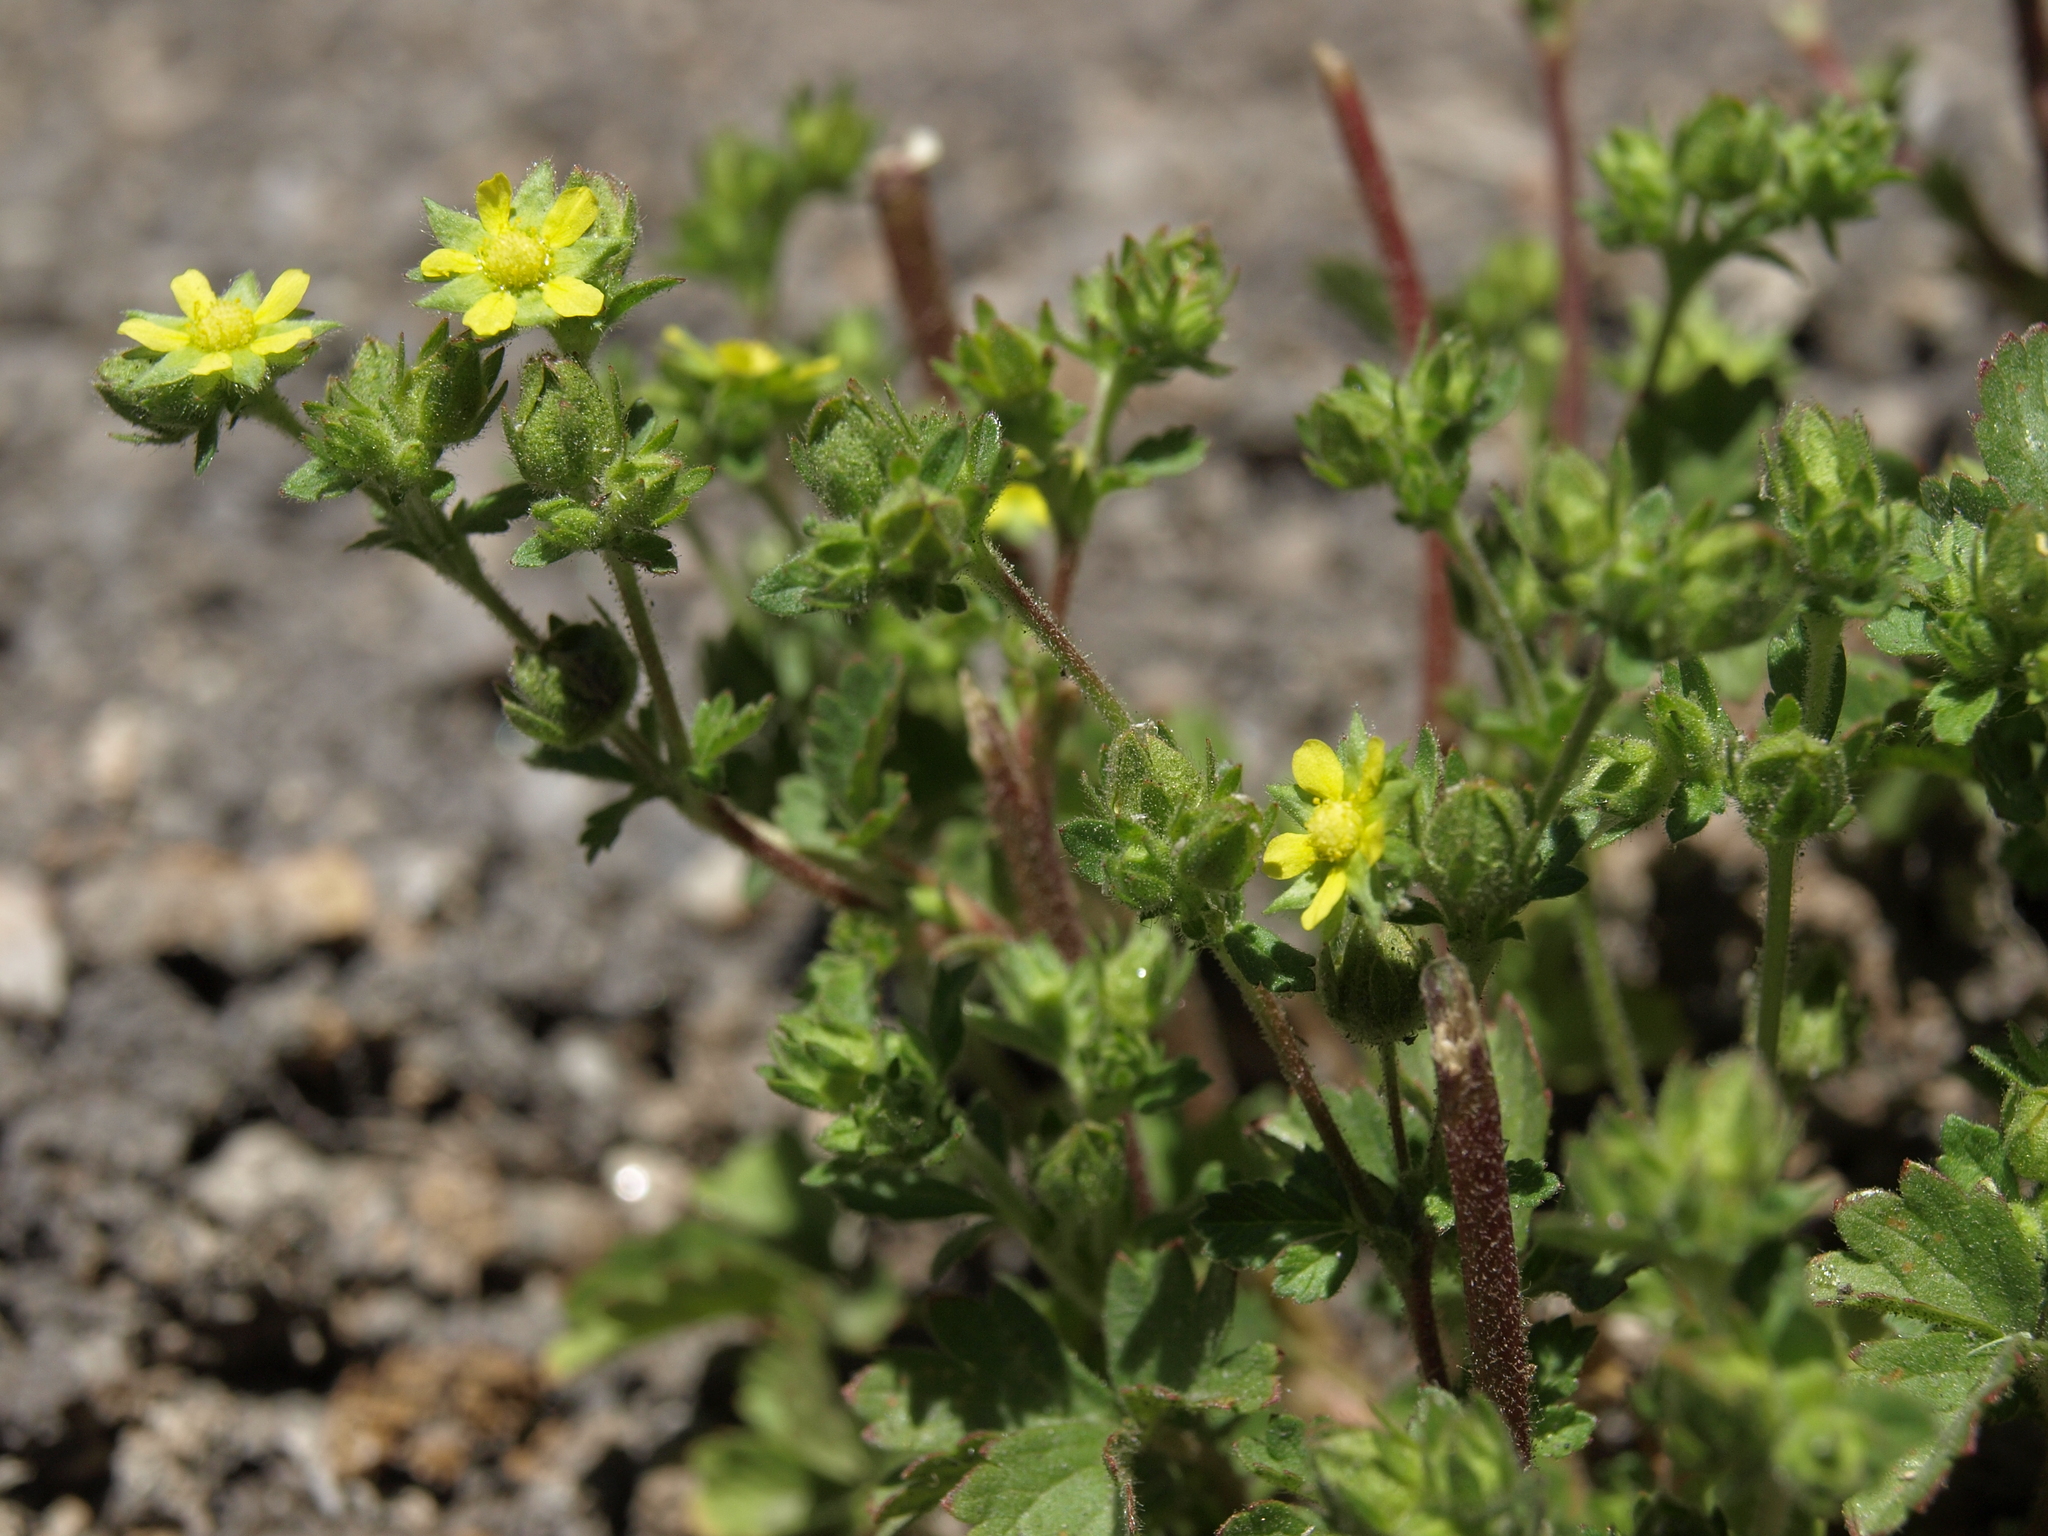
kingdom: Plantae
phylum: Tracheophyta
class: Magnoliopsida
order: Rosales
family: Rosaceae
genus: Potentilla
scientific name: Potentilla biennis
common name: Greene's cinquefoil
